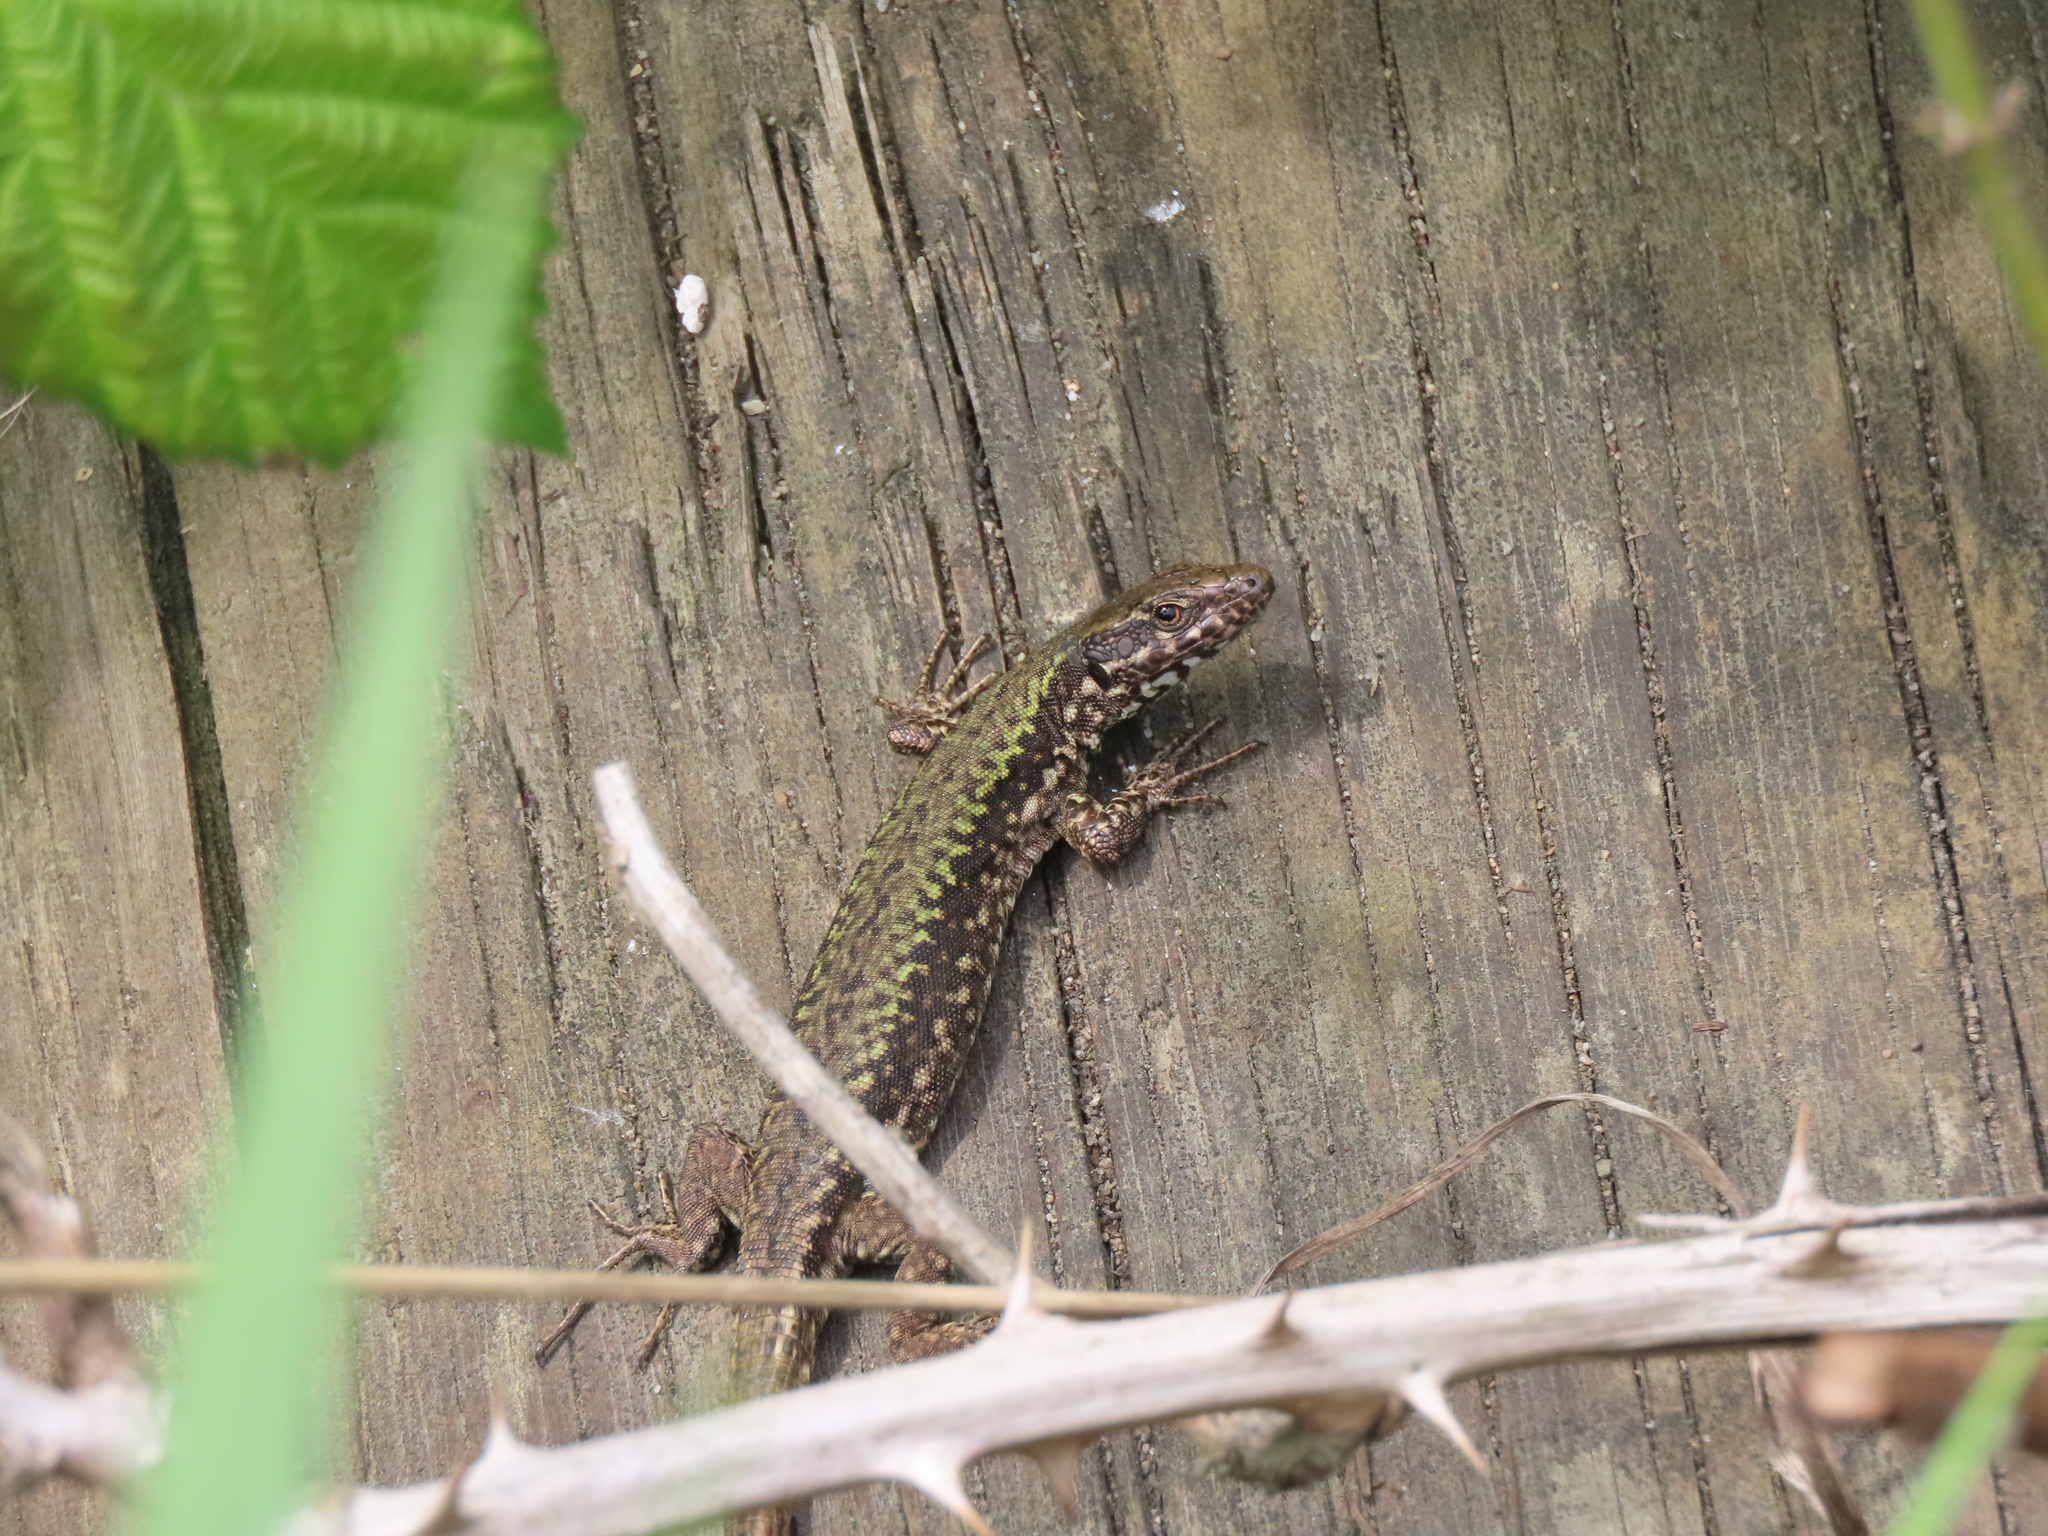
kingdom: Animalia
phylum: Chordata
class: Squamata
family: Lacertidae
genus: Podarcis
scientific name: Podarcis muralis
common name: Common wall lizard
